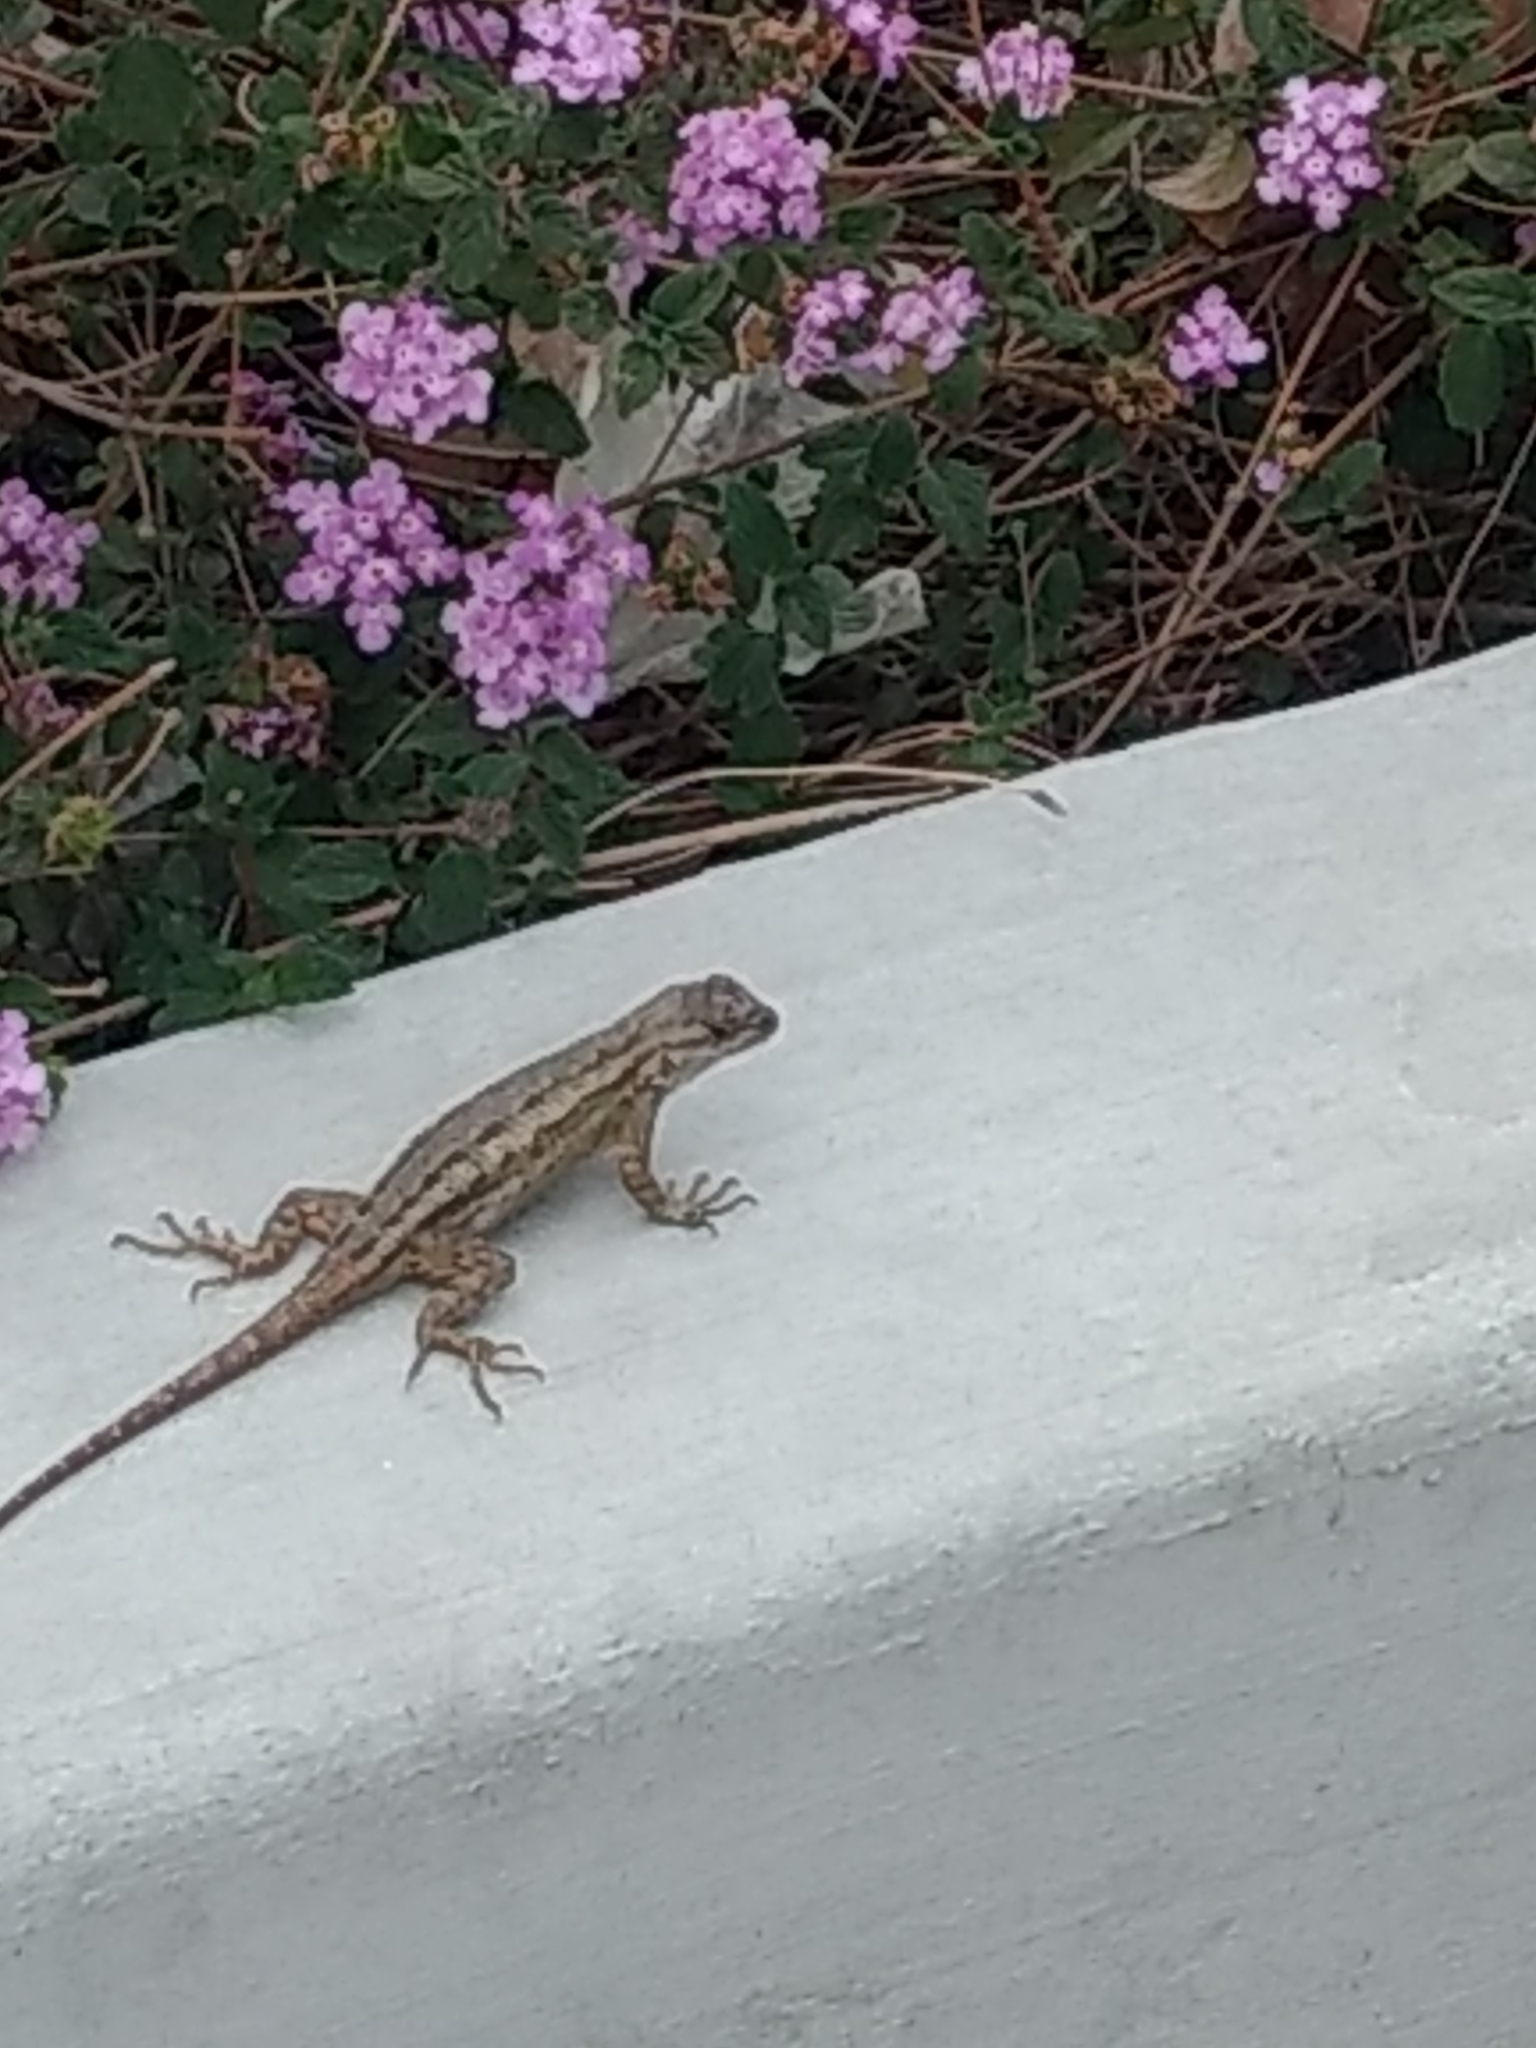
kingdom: Animalia
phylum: Chordata
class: Squamata
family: Phrynosomatidae
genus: Sceloporus
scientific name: Sceloporus occidentalis
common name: Western fence lizard
